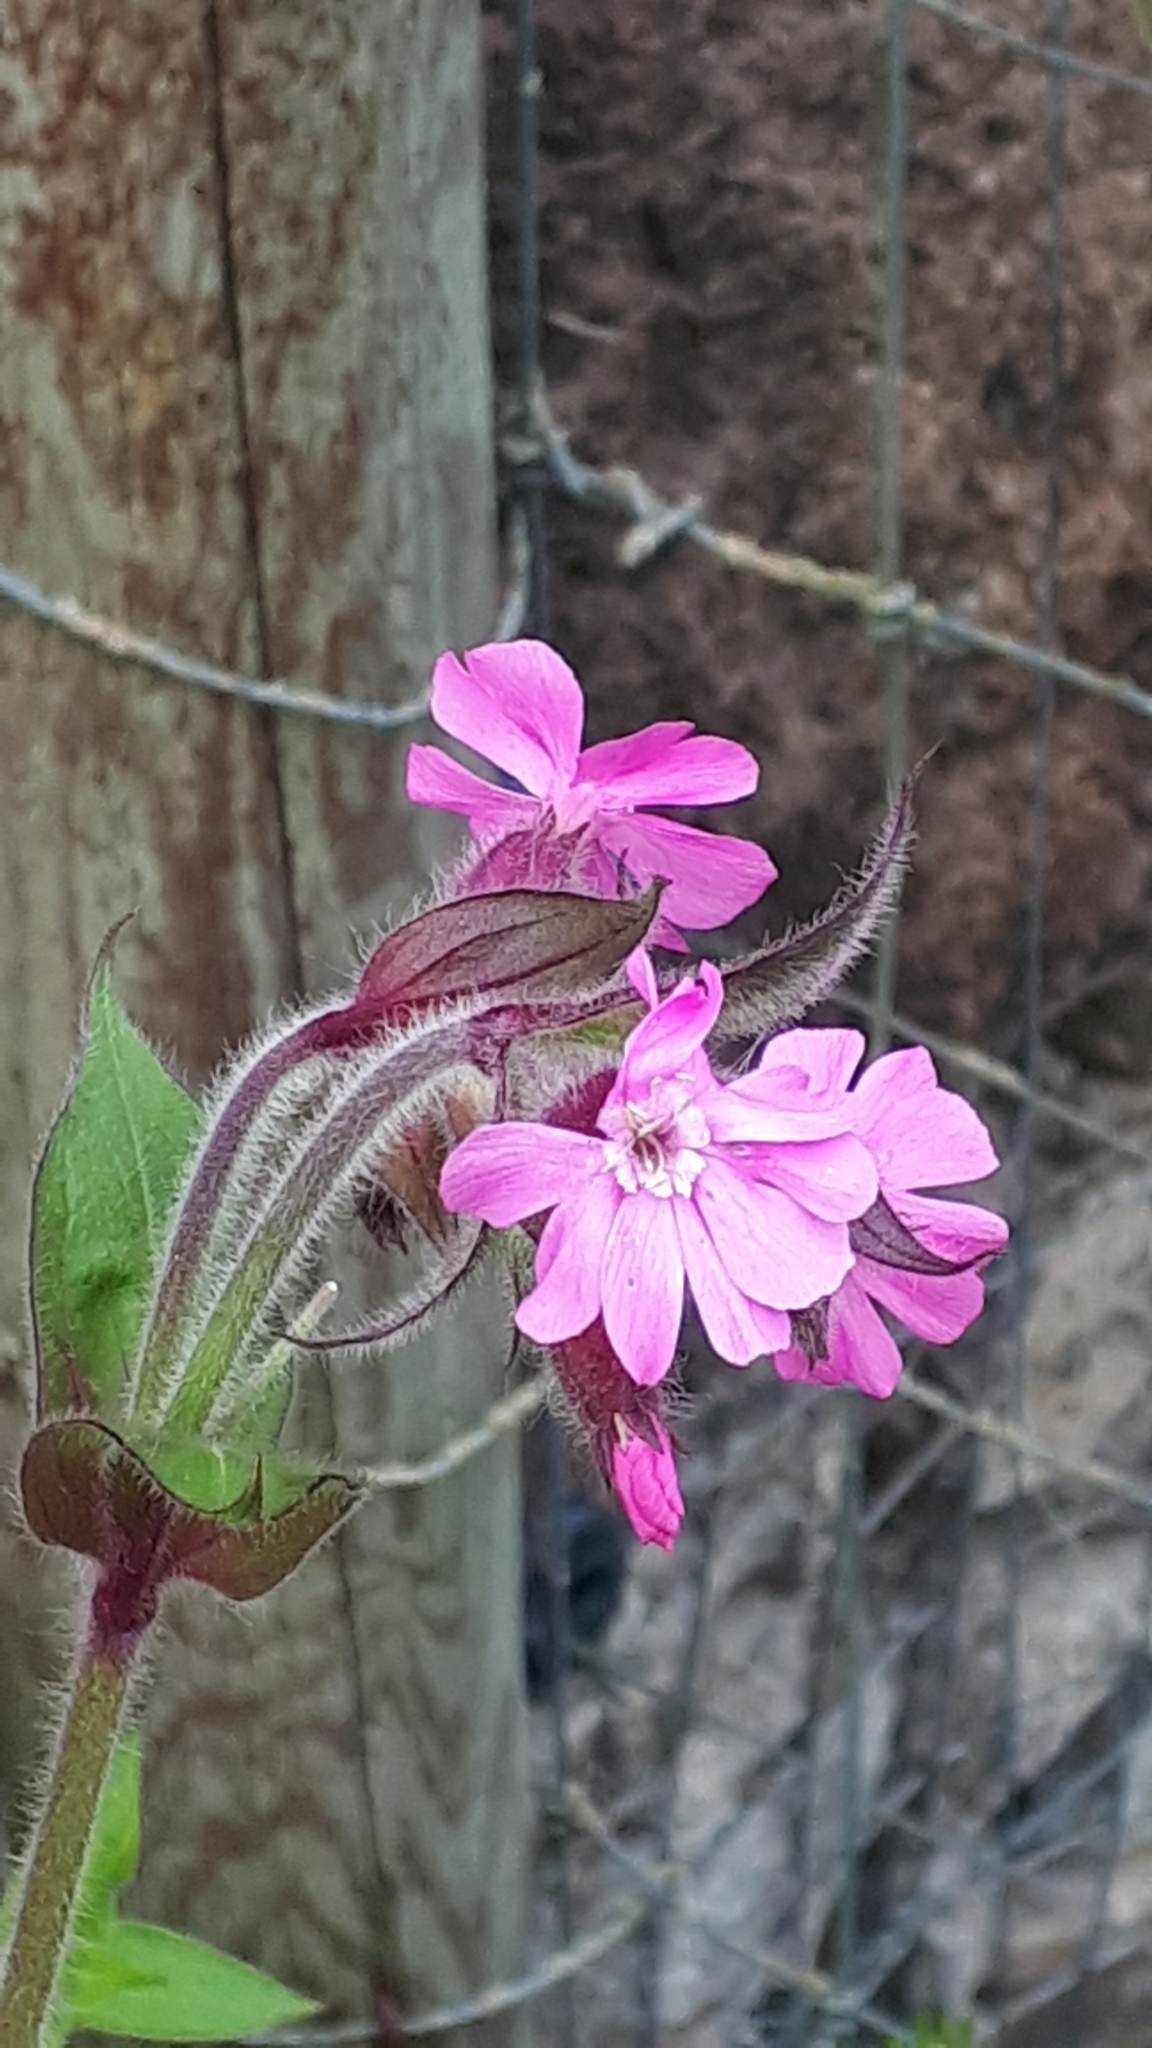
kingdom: Plantae
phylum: Tracheophyta
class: Magnoliopsida
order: Caryophyllales
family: Caryophyllaceae
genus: Silene
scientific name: Silene dioica
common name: Red campion
